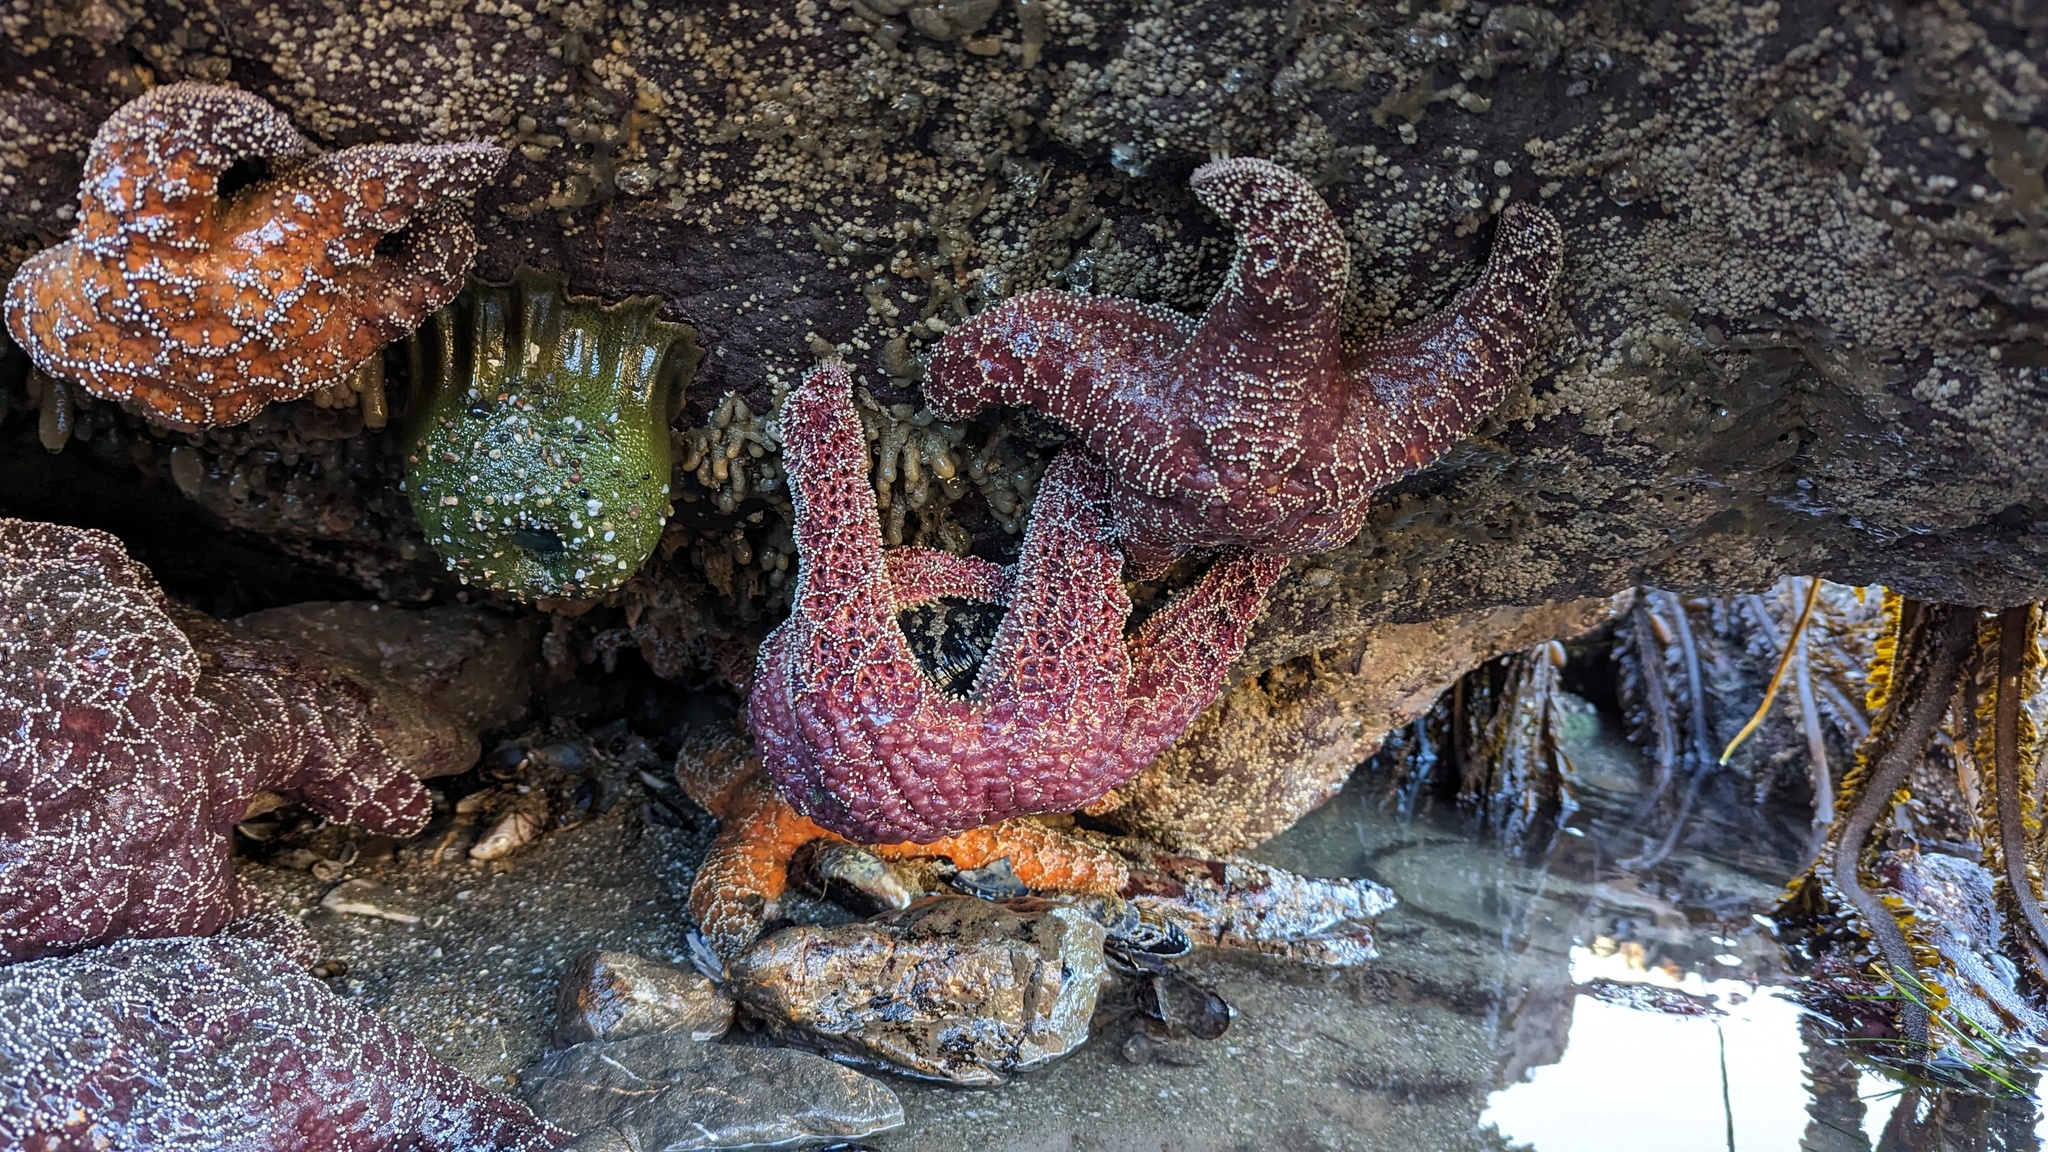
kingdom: Animalia
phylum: Echinodermata
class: Asteroidea
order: Forcipulatida
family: Asteriidae
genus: Pisaster
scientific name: Pisaster ochraceus
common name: Ochre stars
